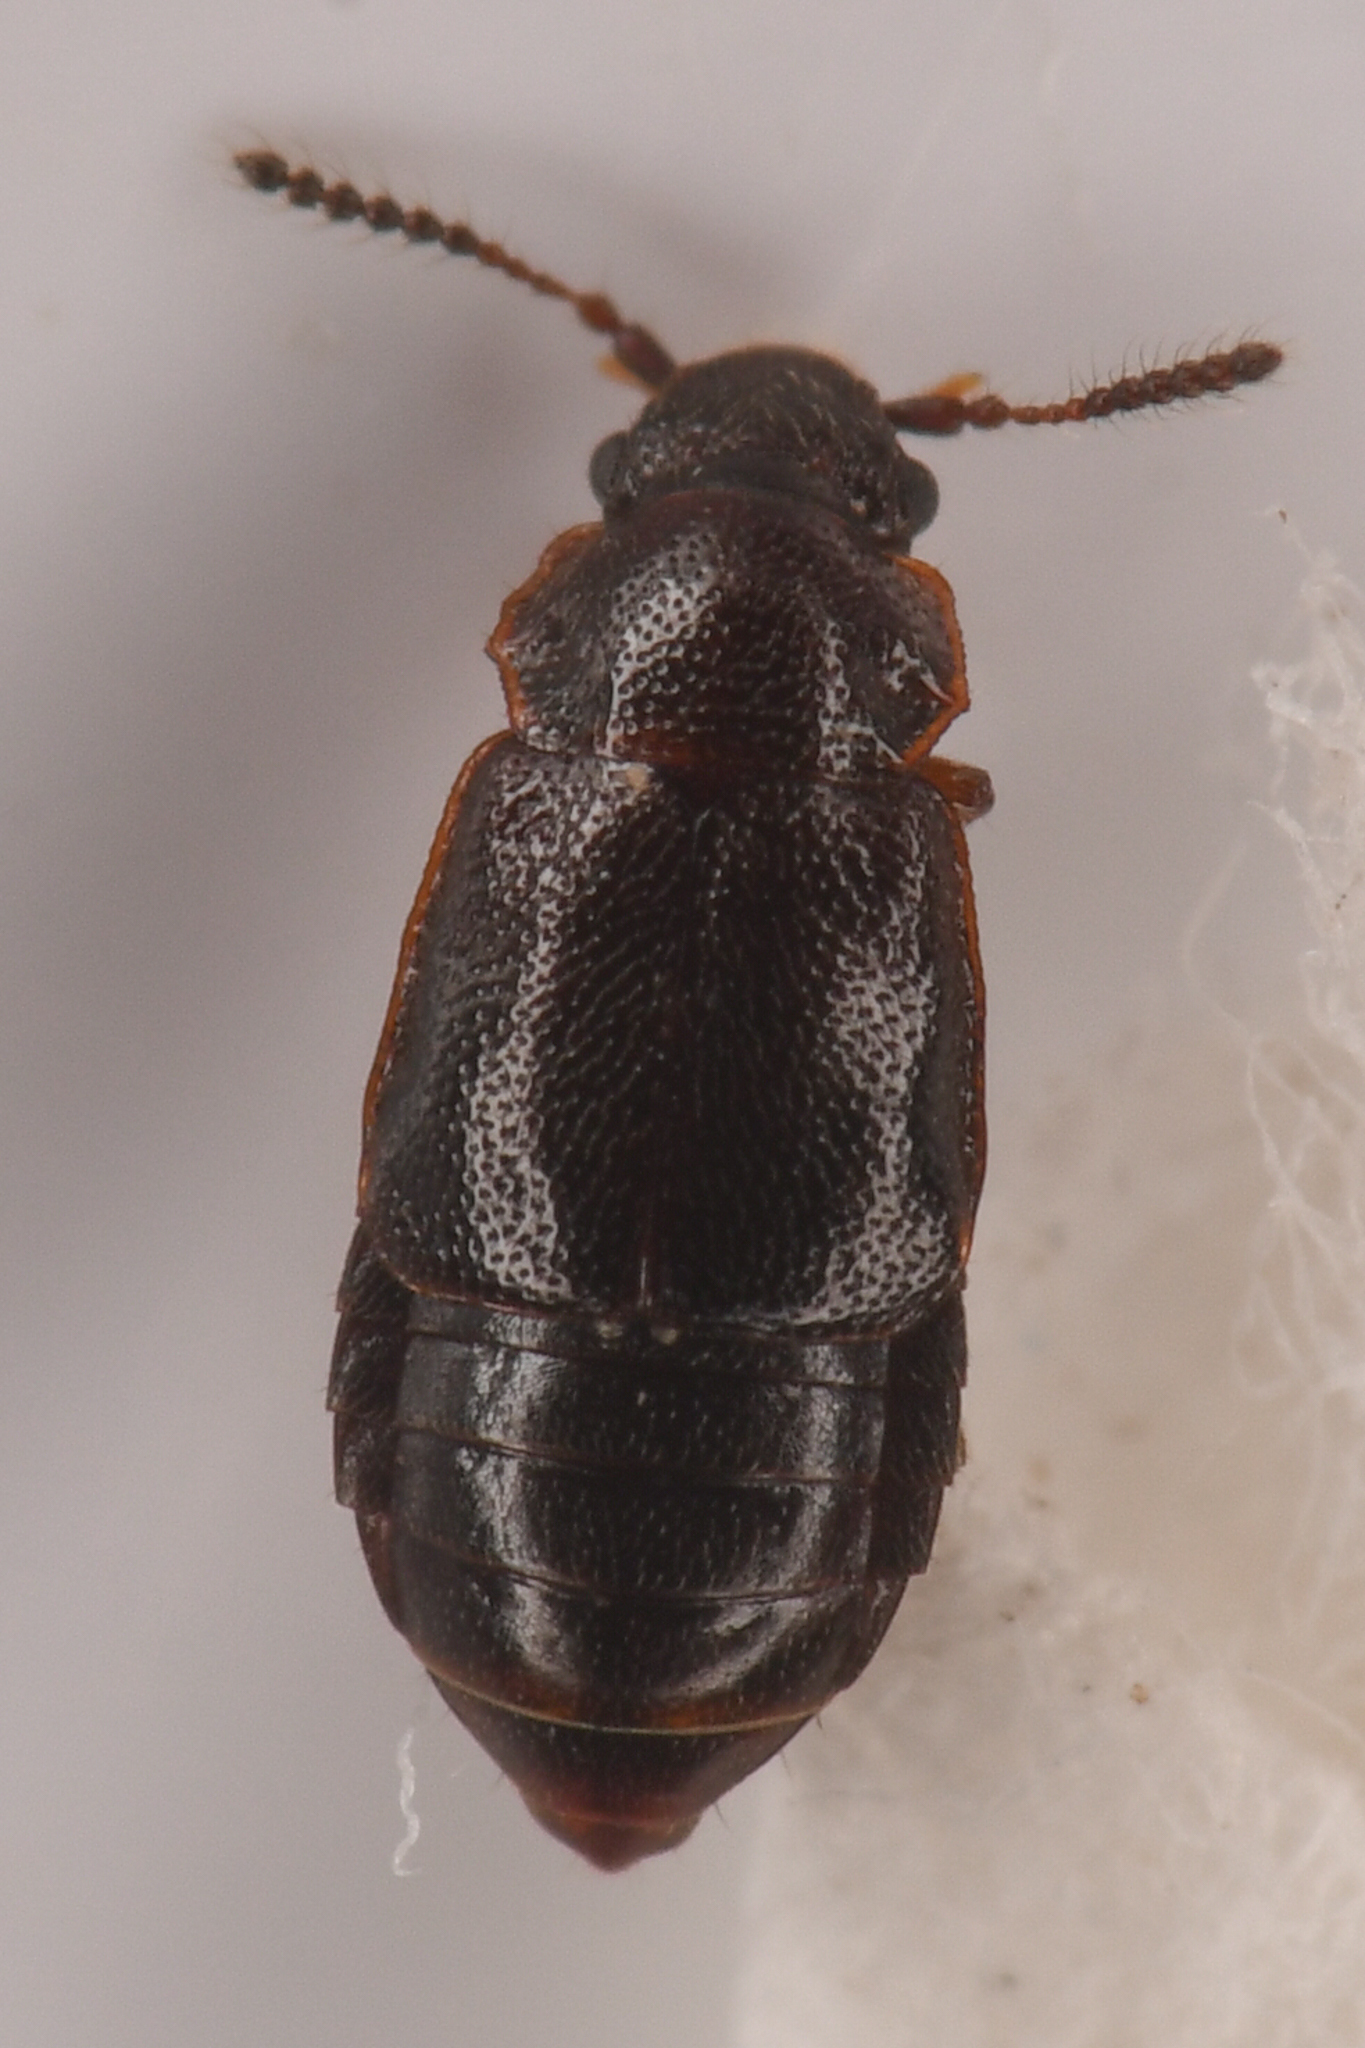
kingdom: Animalia
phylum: Arthropoda
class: Insecta
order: Coleoptera
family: Staphylinidae
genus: Acruliopsis
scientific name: Acruliopsis tumidula
